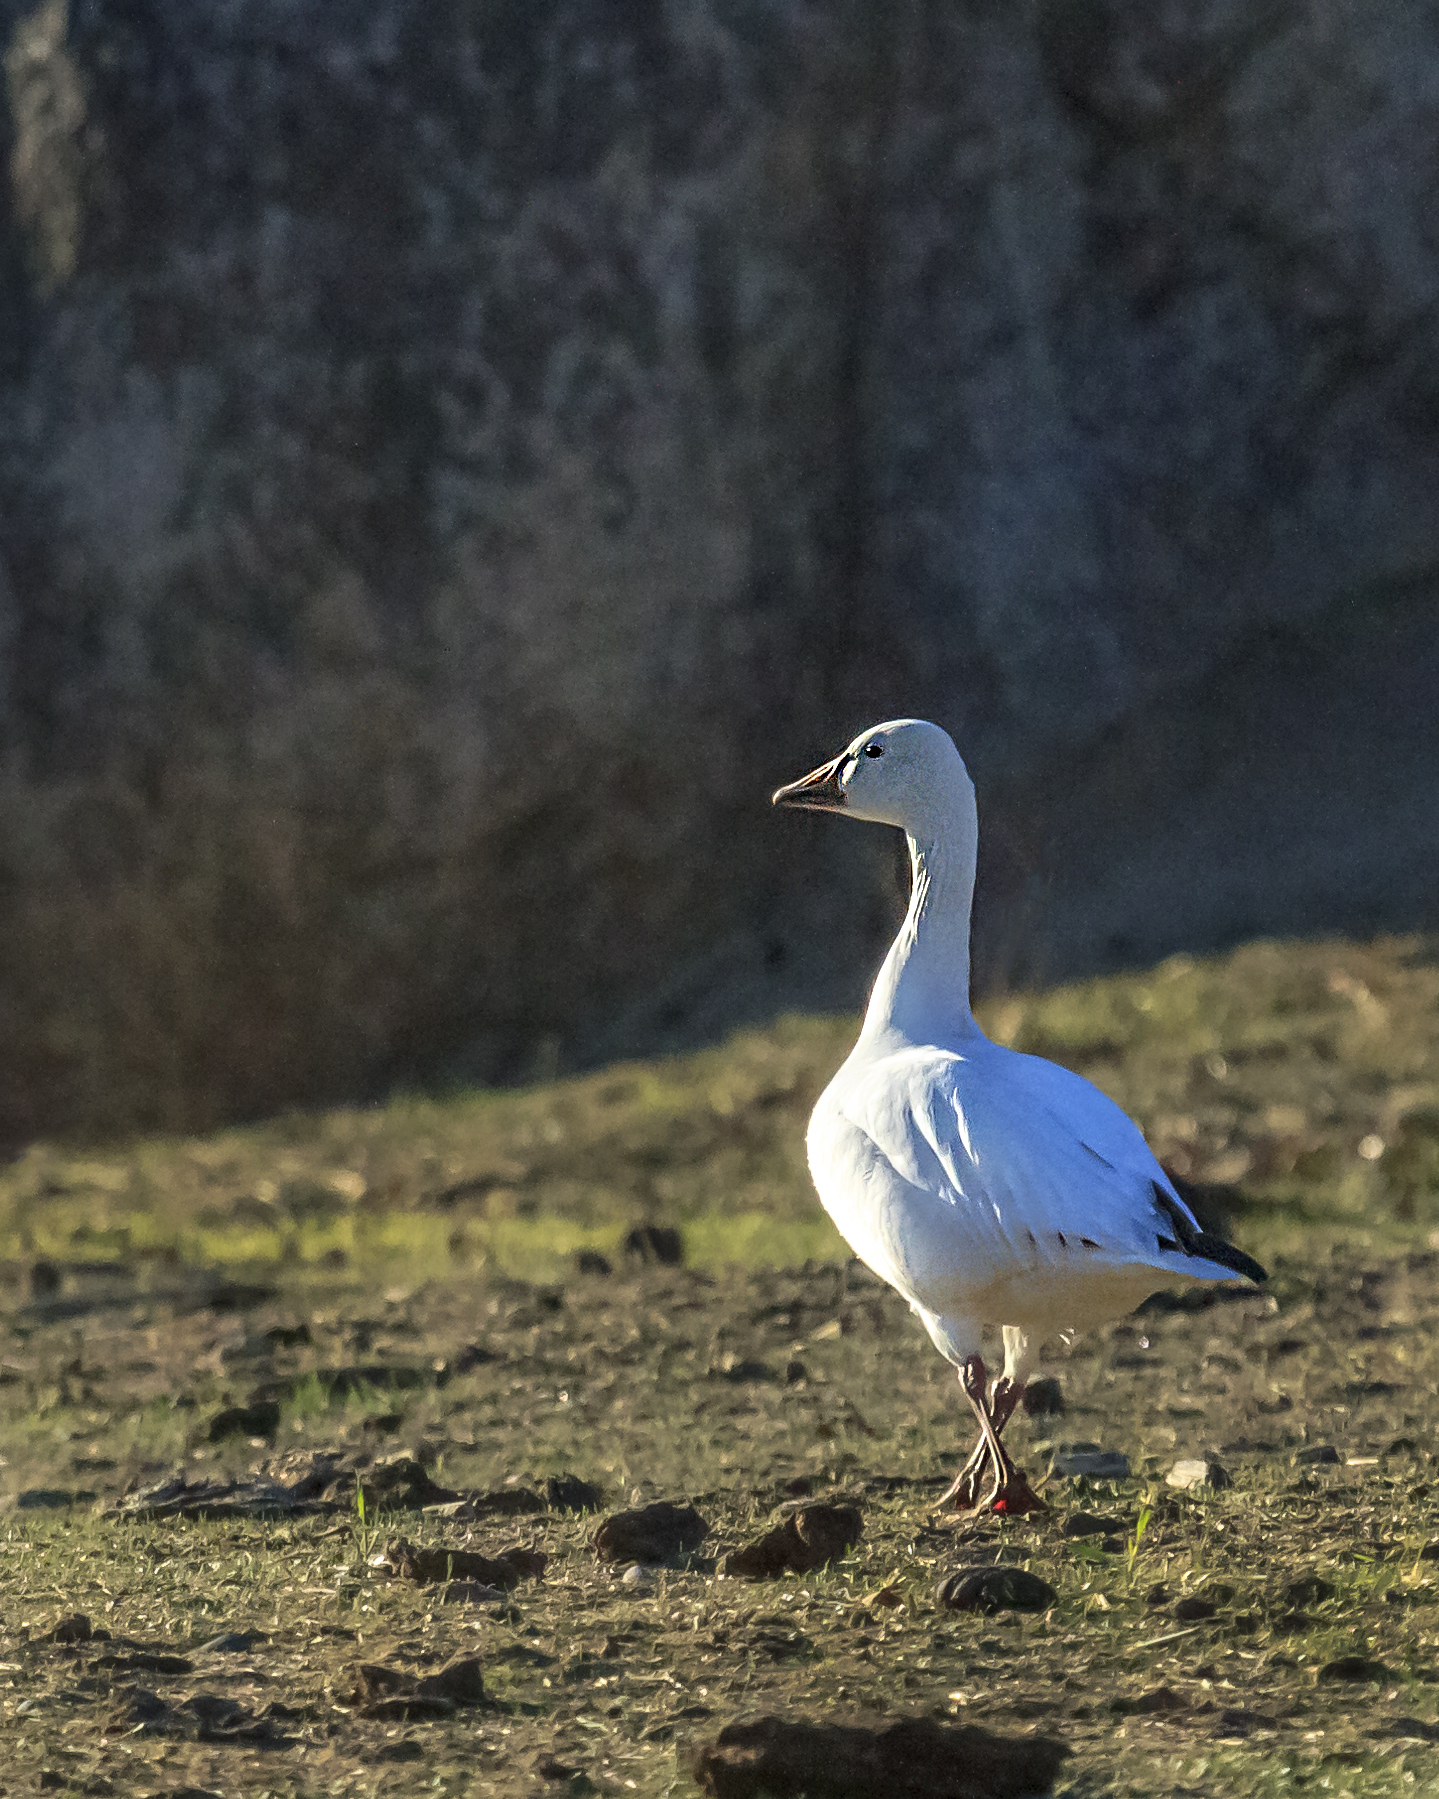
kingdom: Animalia
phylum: Chordata
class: Aves
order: Anseriformes
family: Anatidae
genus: Anser
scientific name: Anser caerulescens
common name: Snow goose
